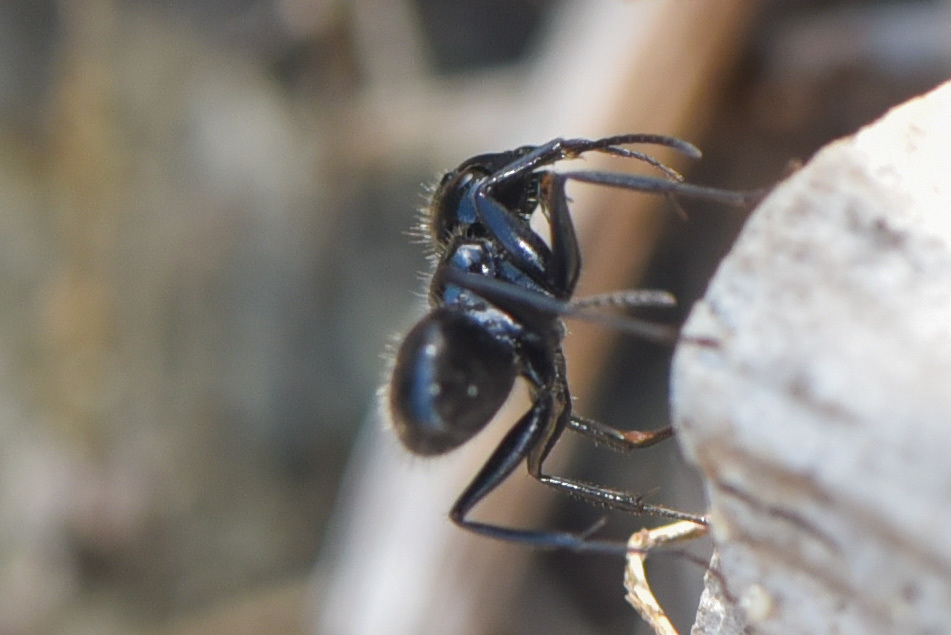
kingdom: Animalia
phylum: Arthropoda
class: Insecta
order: Hymenoptera
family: Formicidae
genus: Camponotus
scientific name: Camponotus
